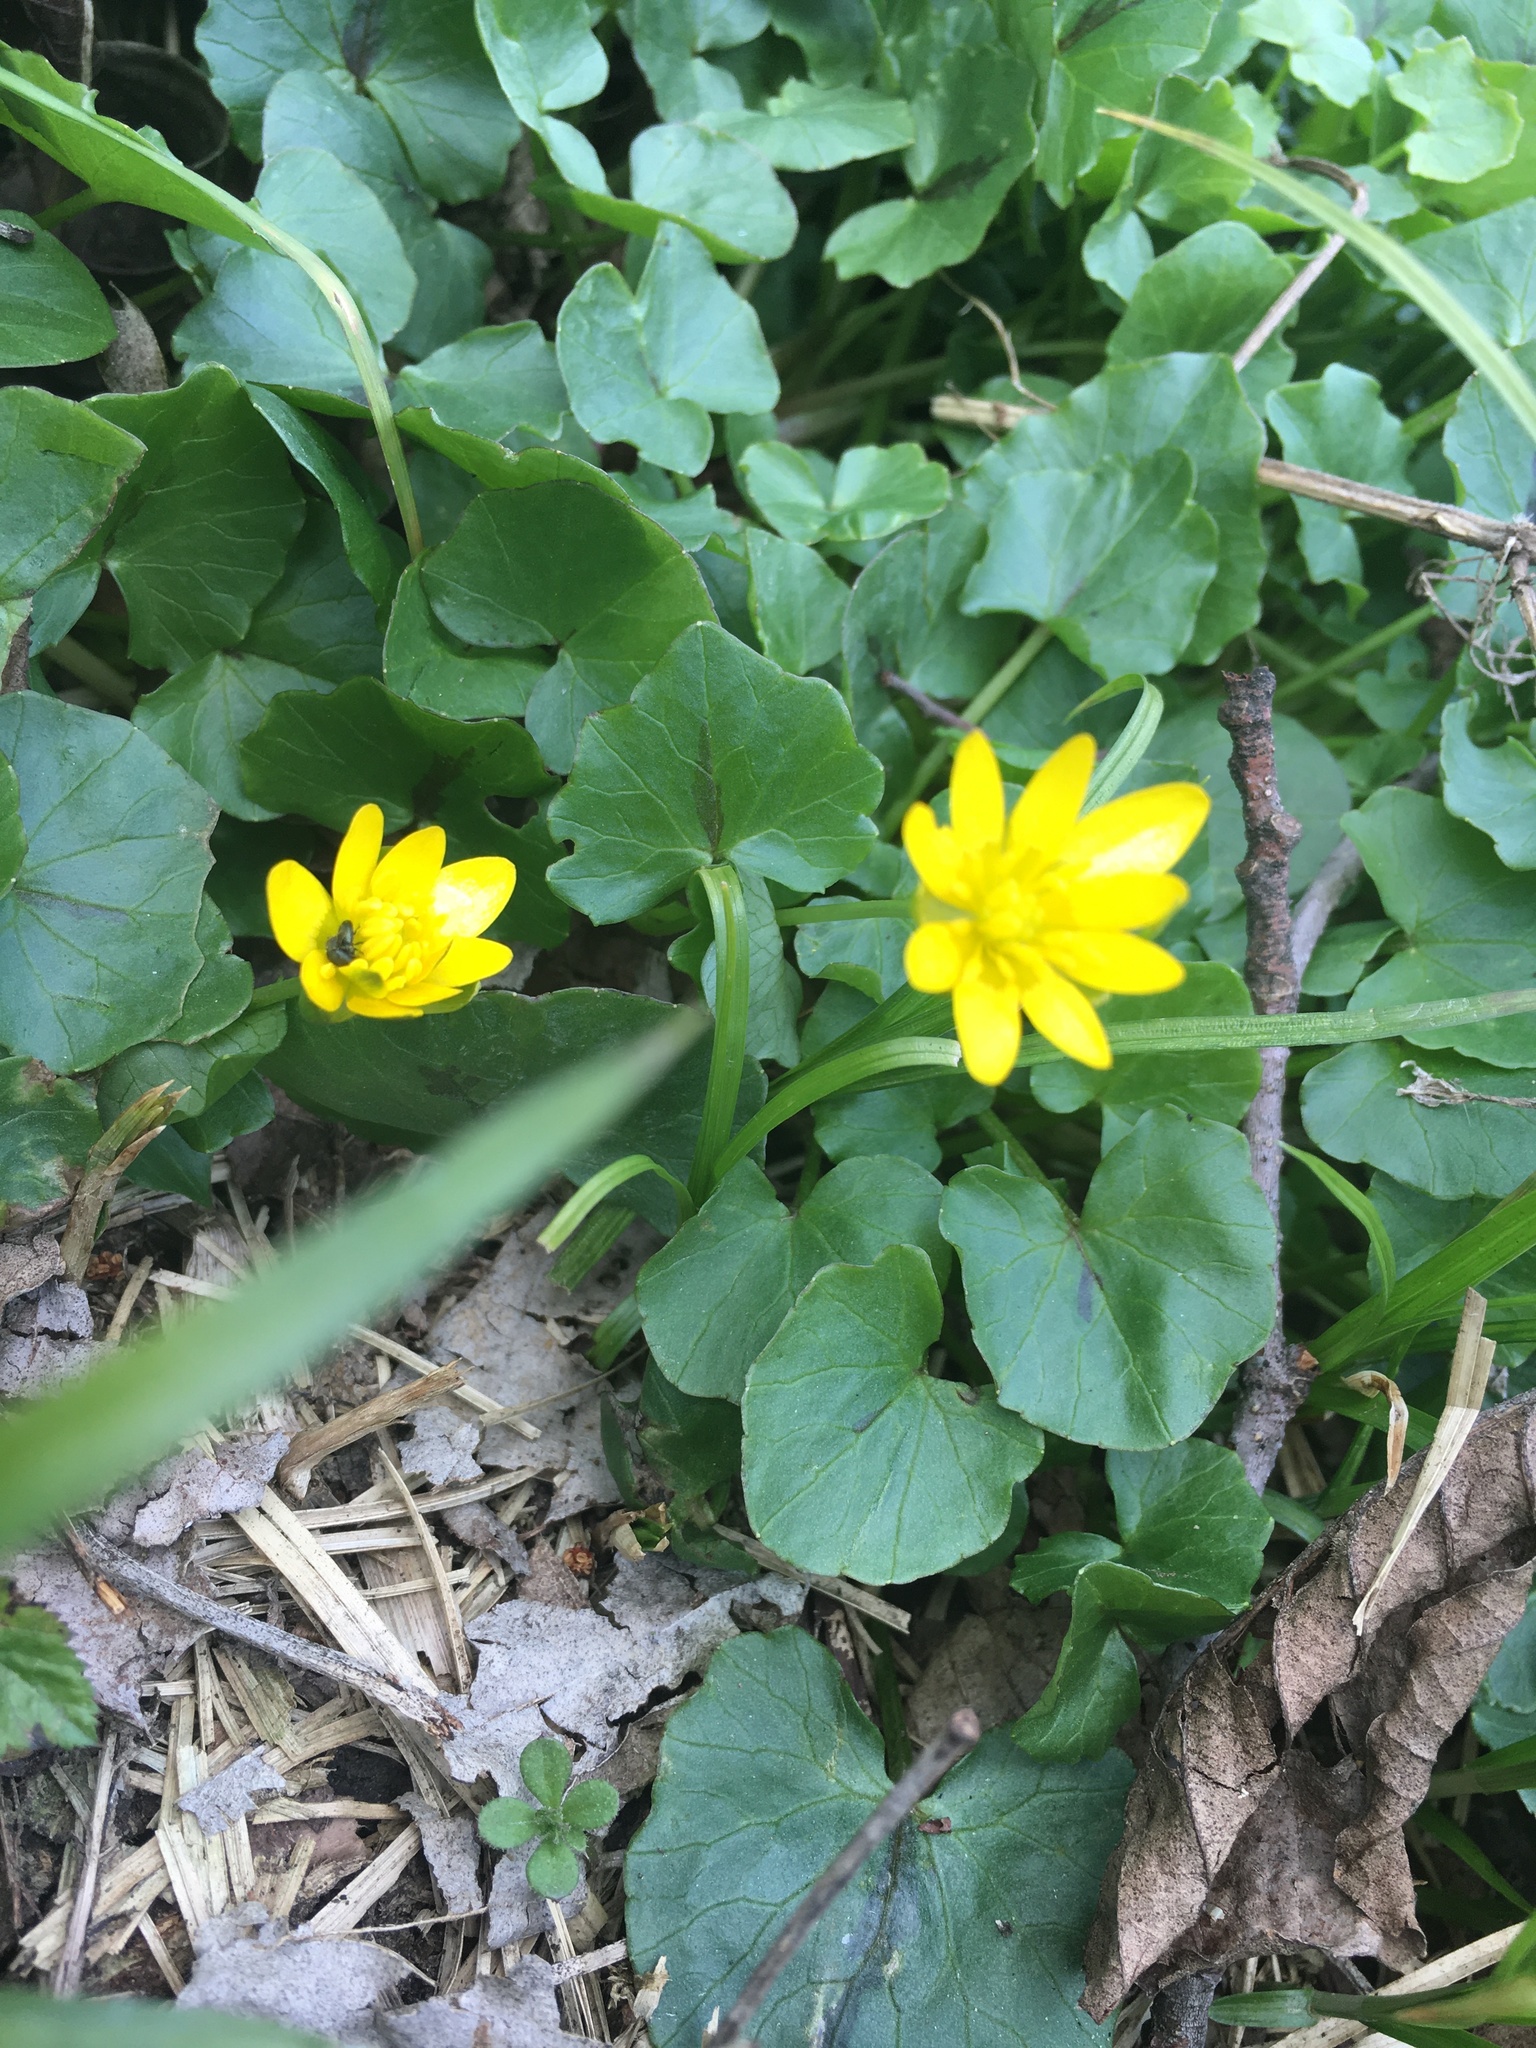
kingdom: Plantae
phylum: Tracheophyta
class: Magnoliopsida
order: Ranunculales
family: Ranunculaceae
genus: Ficaria
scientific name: Ficaria verna
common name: Lesser celandine
